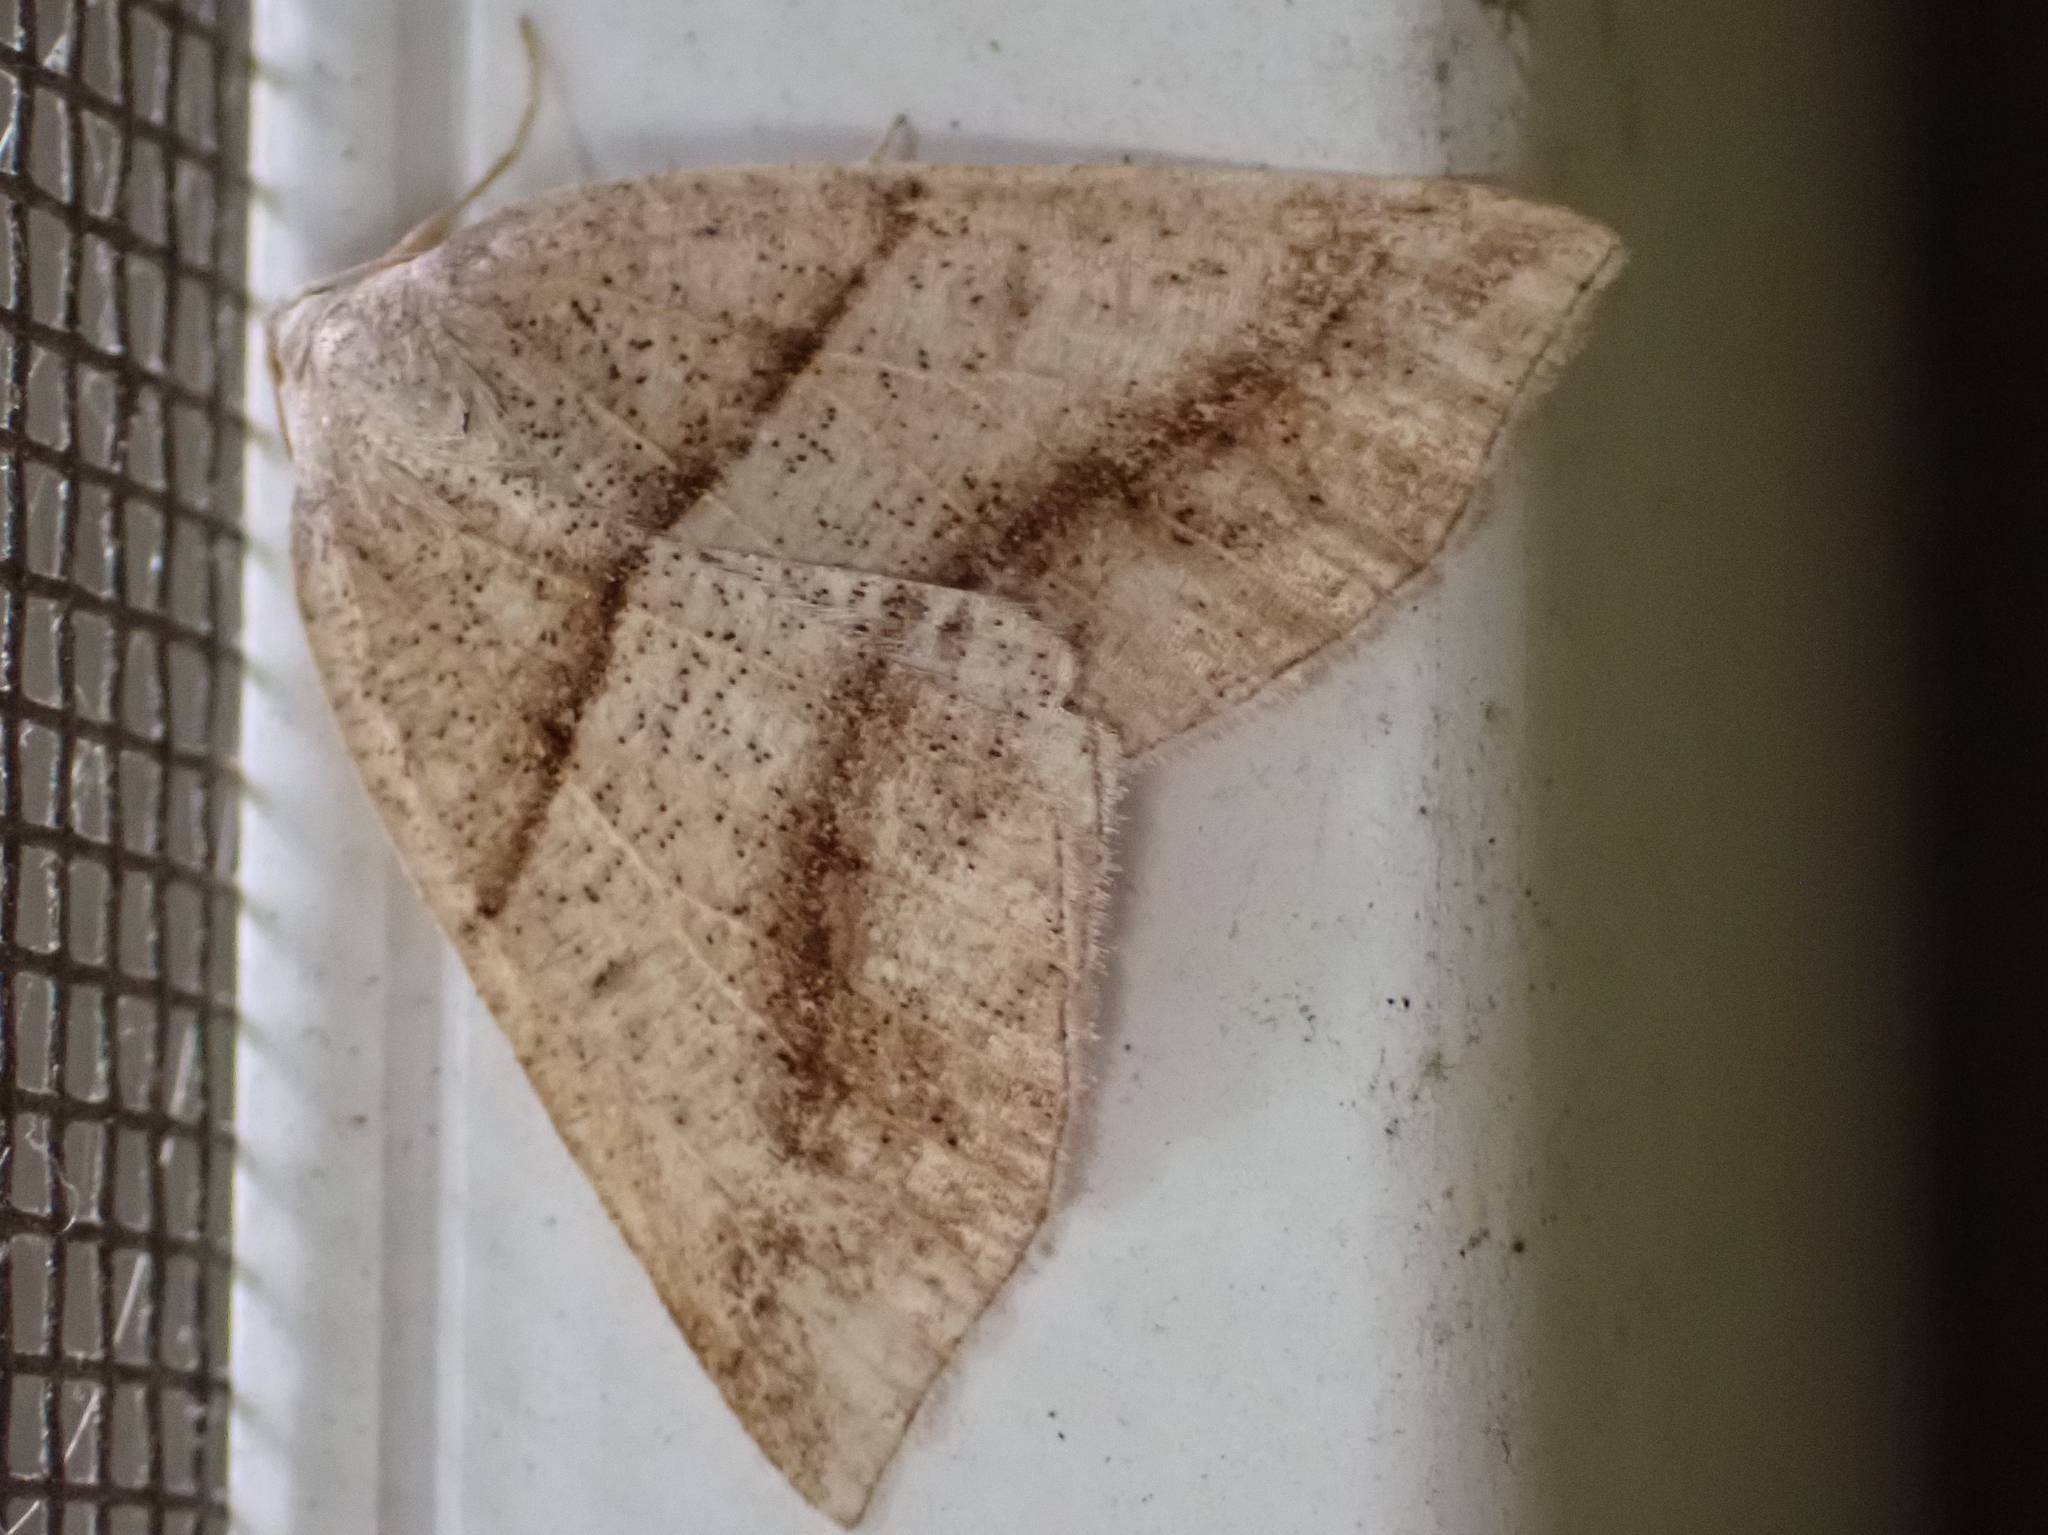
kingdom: Animalia
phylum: Arthropoda
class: Insecta
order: Lepidoptera
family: Pterophoridae
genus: Pterophorus
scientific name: Pterophorus Petrophora subaequaria
